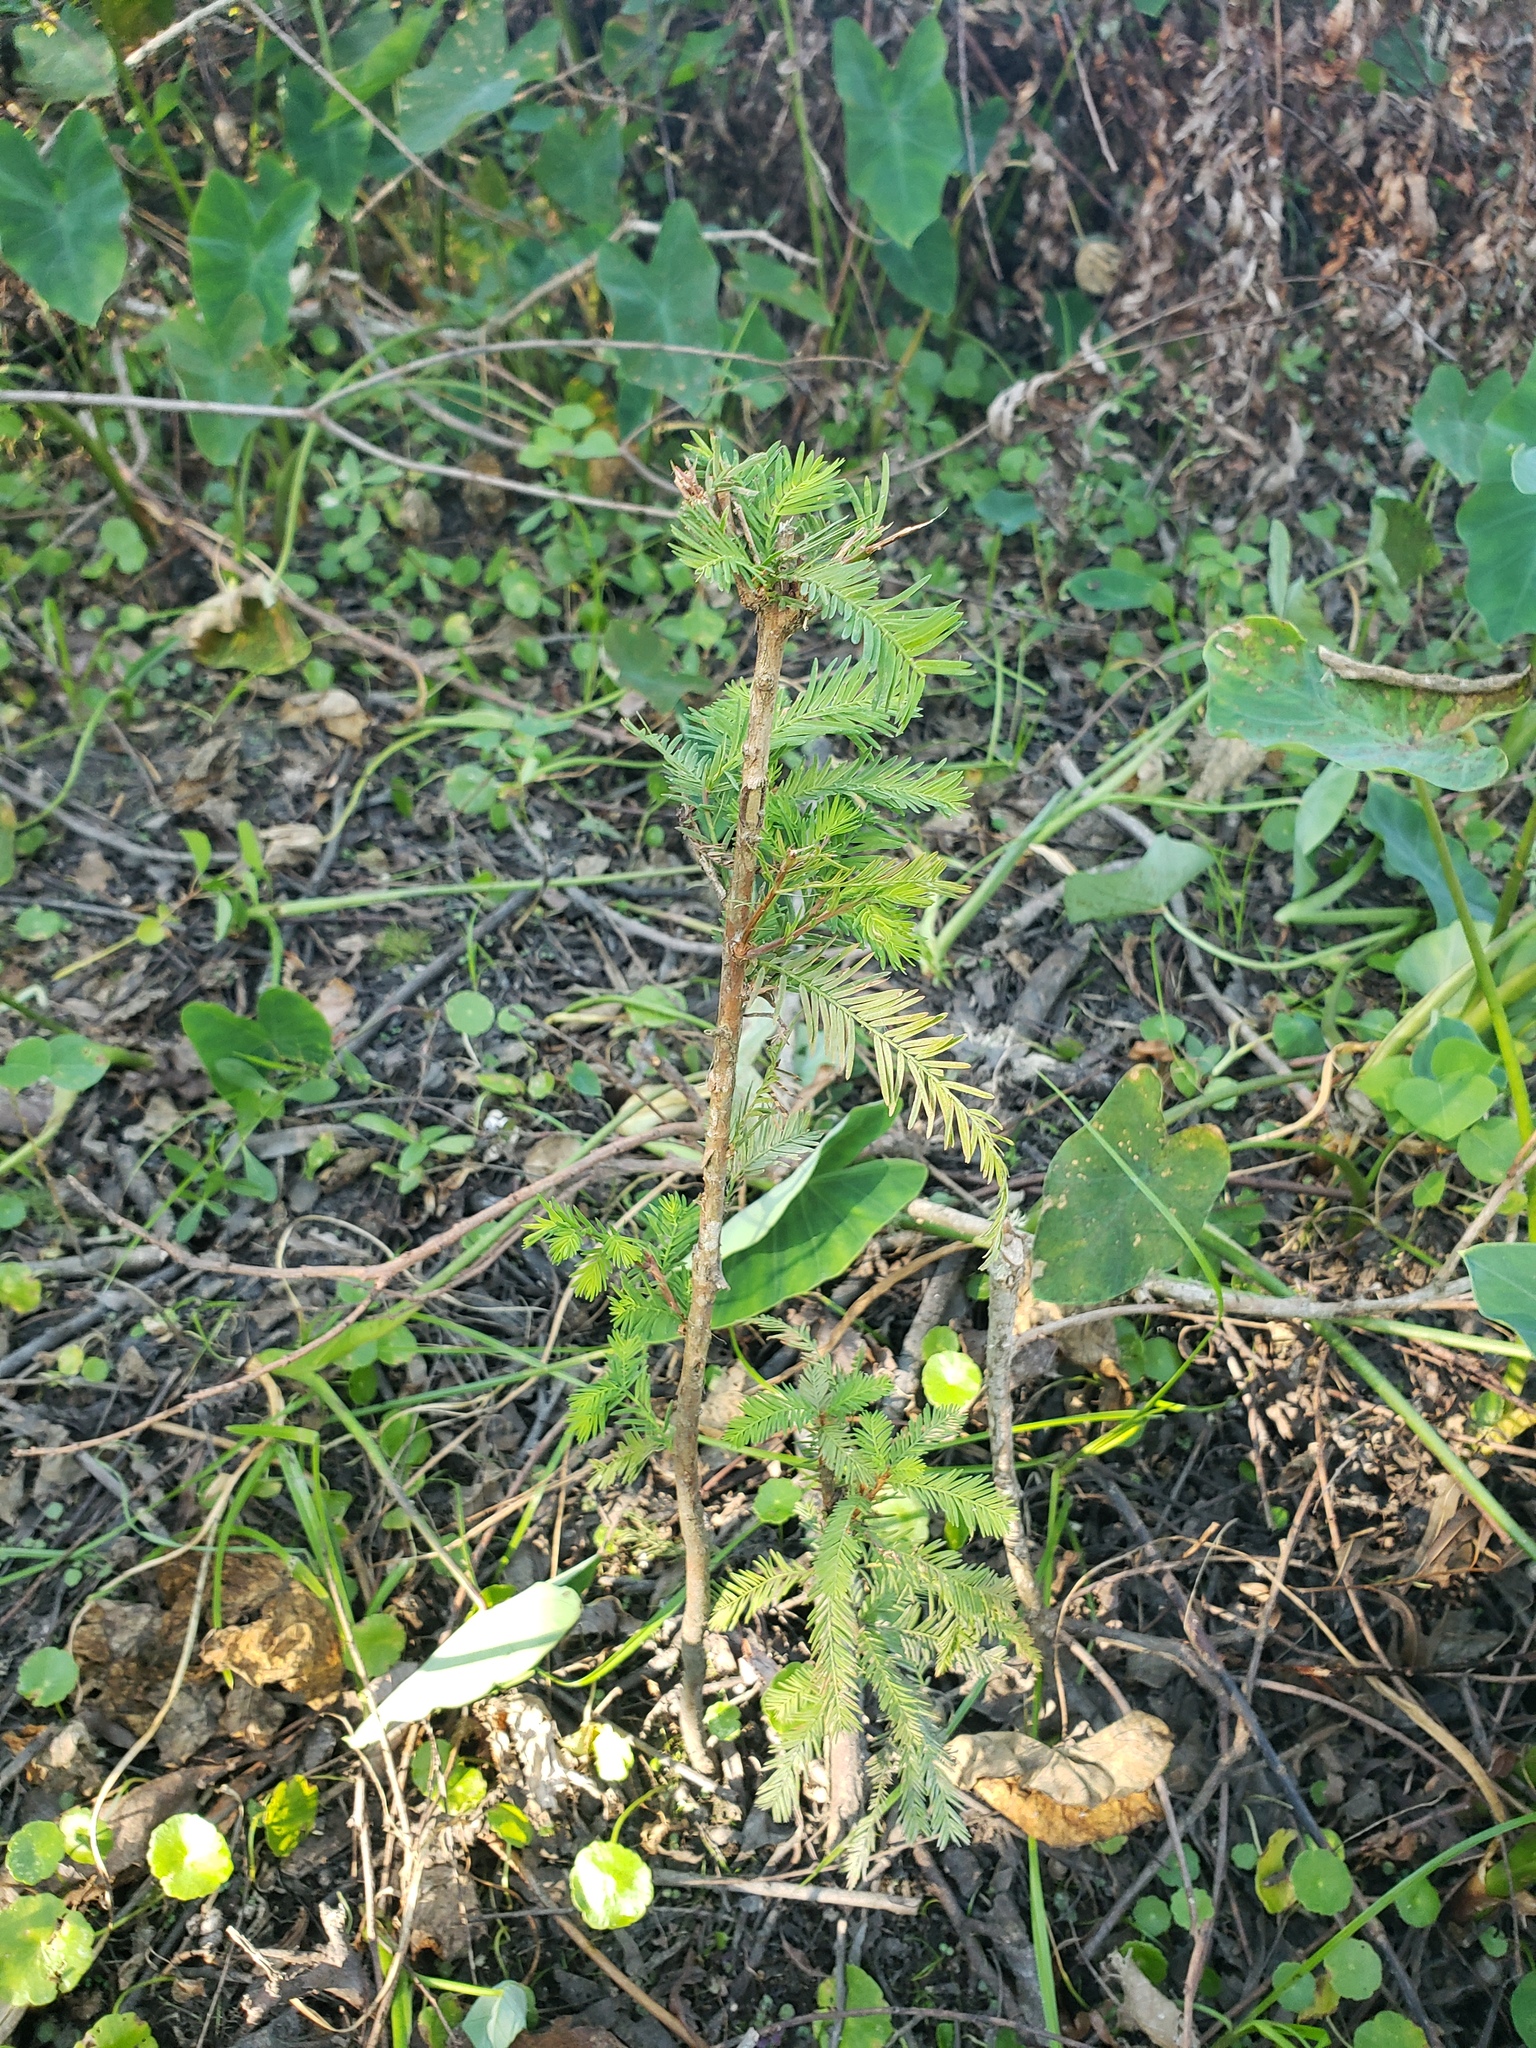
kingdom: Plantae
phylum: Tracheophyta
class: Pinopsida
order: Pinales
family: Cupressaceae
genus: Taxodium
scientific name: Taxodium distichum
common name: Bald cypress
